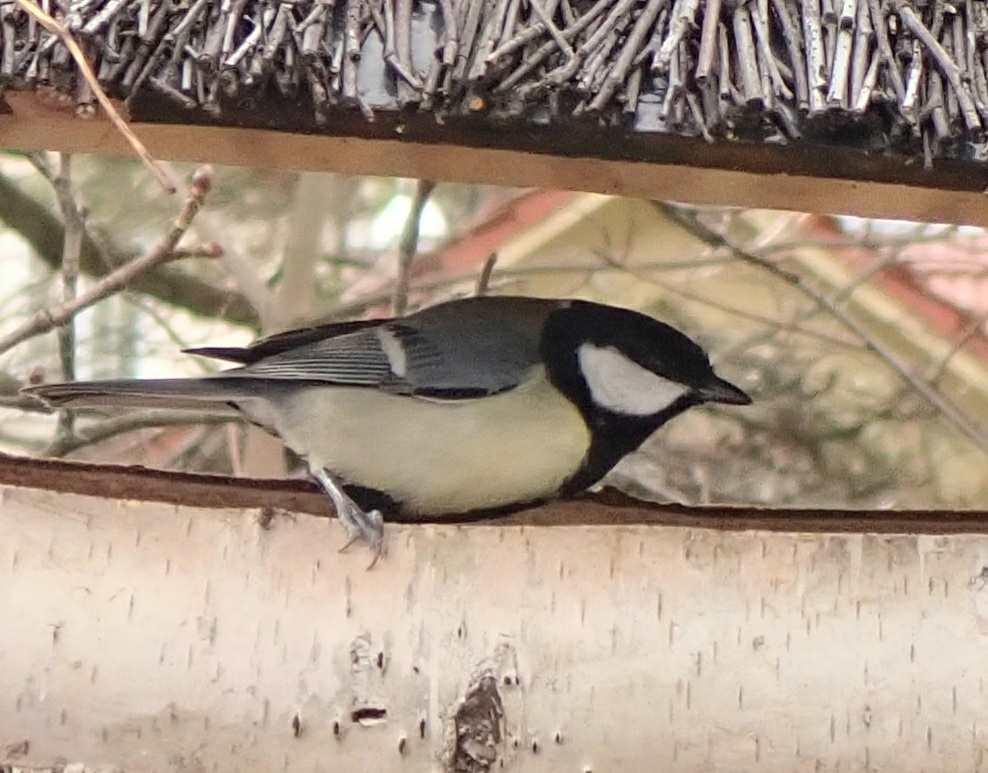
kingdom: Animalia
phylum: Chordata
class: Aves
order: Passeriformes
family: Paridae
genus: Parus
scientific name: Parus major
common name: Great tit
